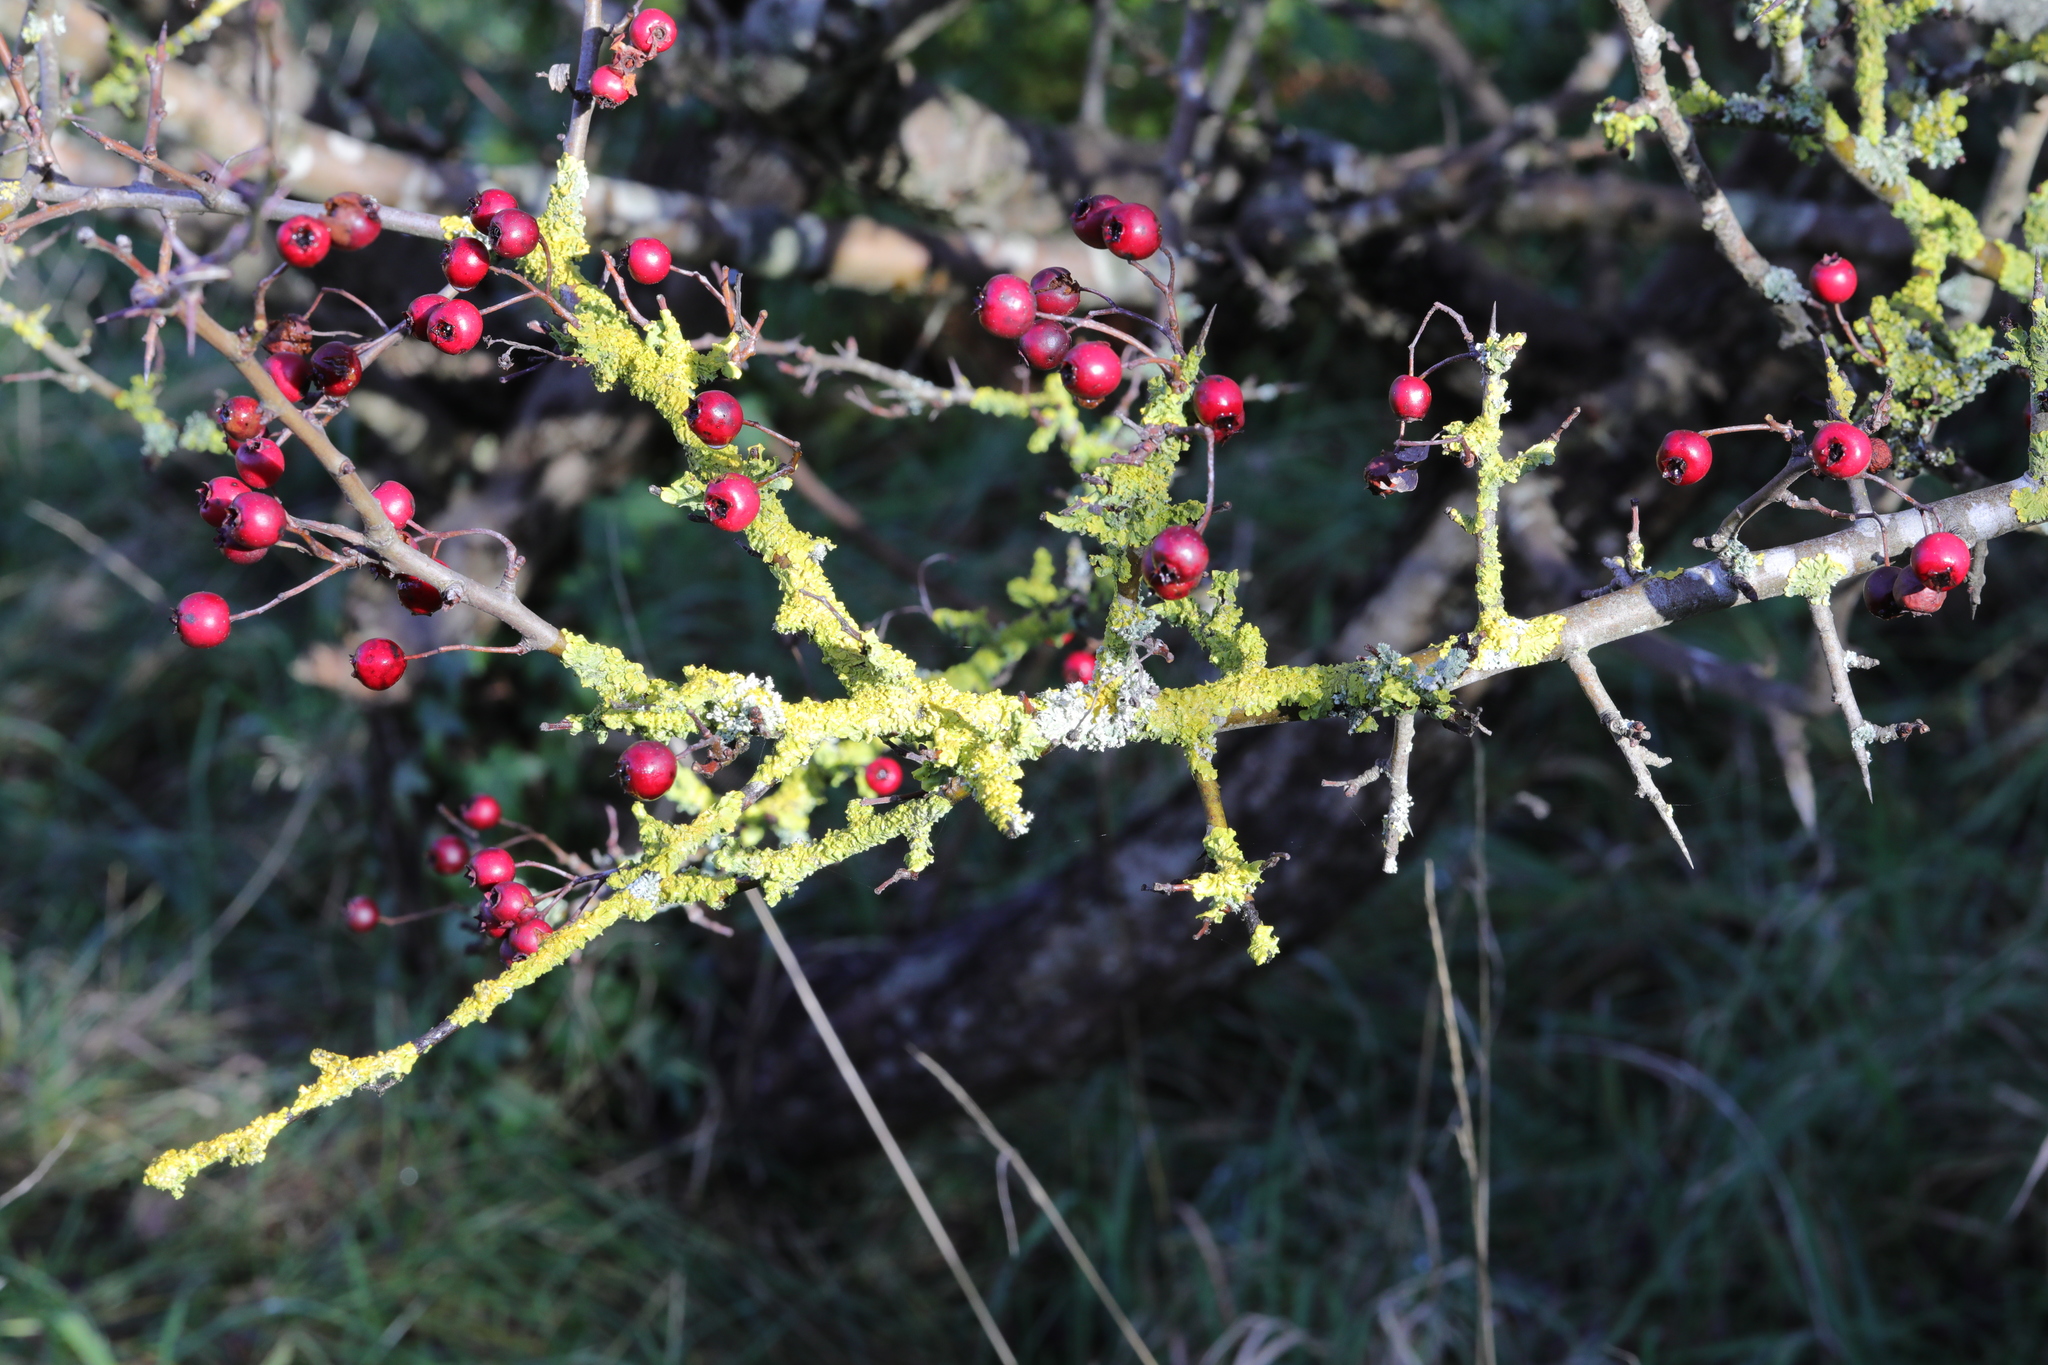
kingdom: Plantae
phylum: Tracheophyta
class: Magnoliopsida
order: Rosales
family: Rosaceae
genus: Crataegus
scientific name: Crataegus monogyna
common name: Hawthorn
